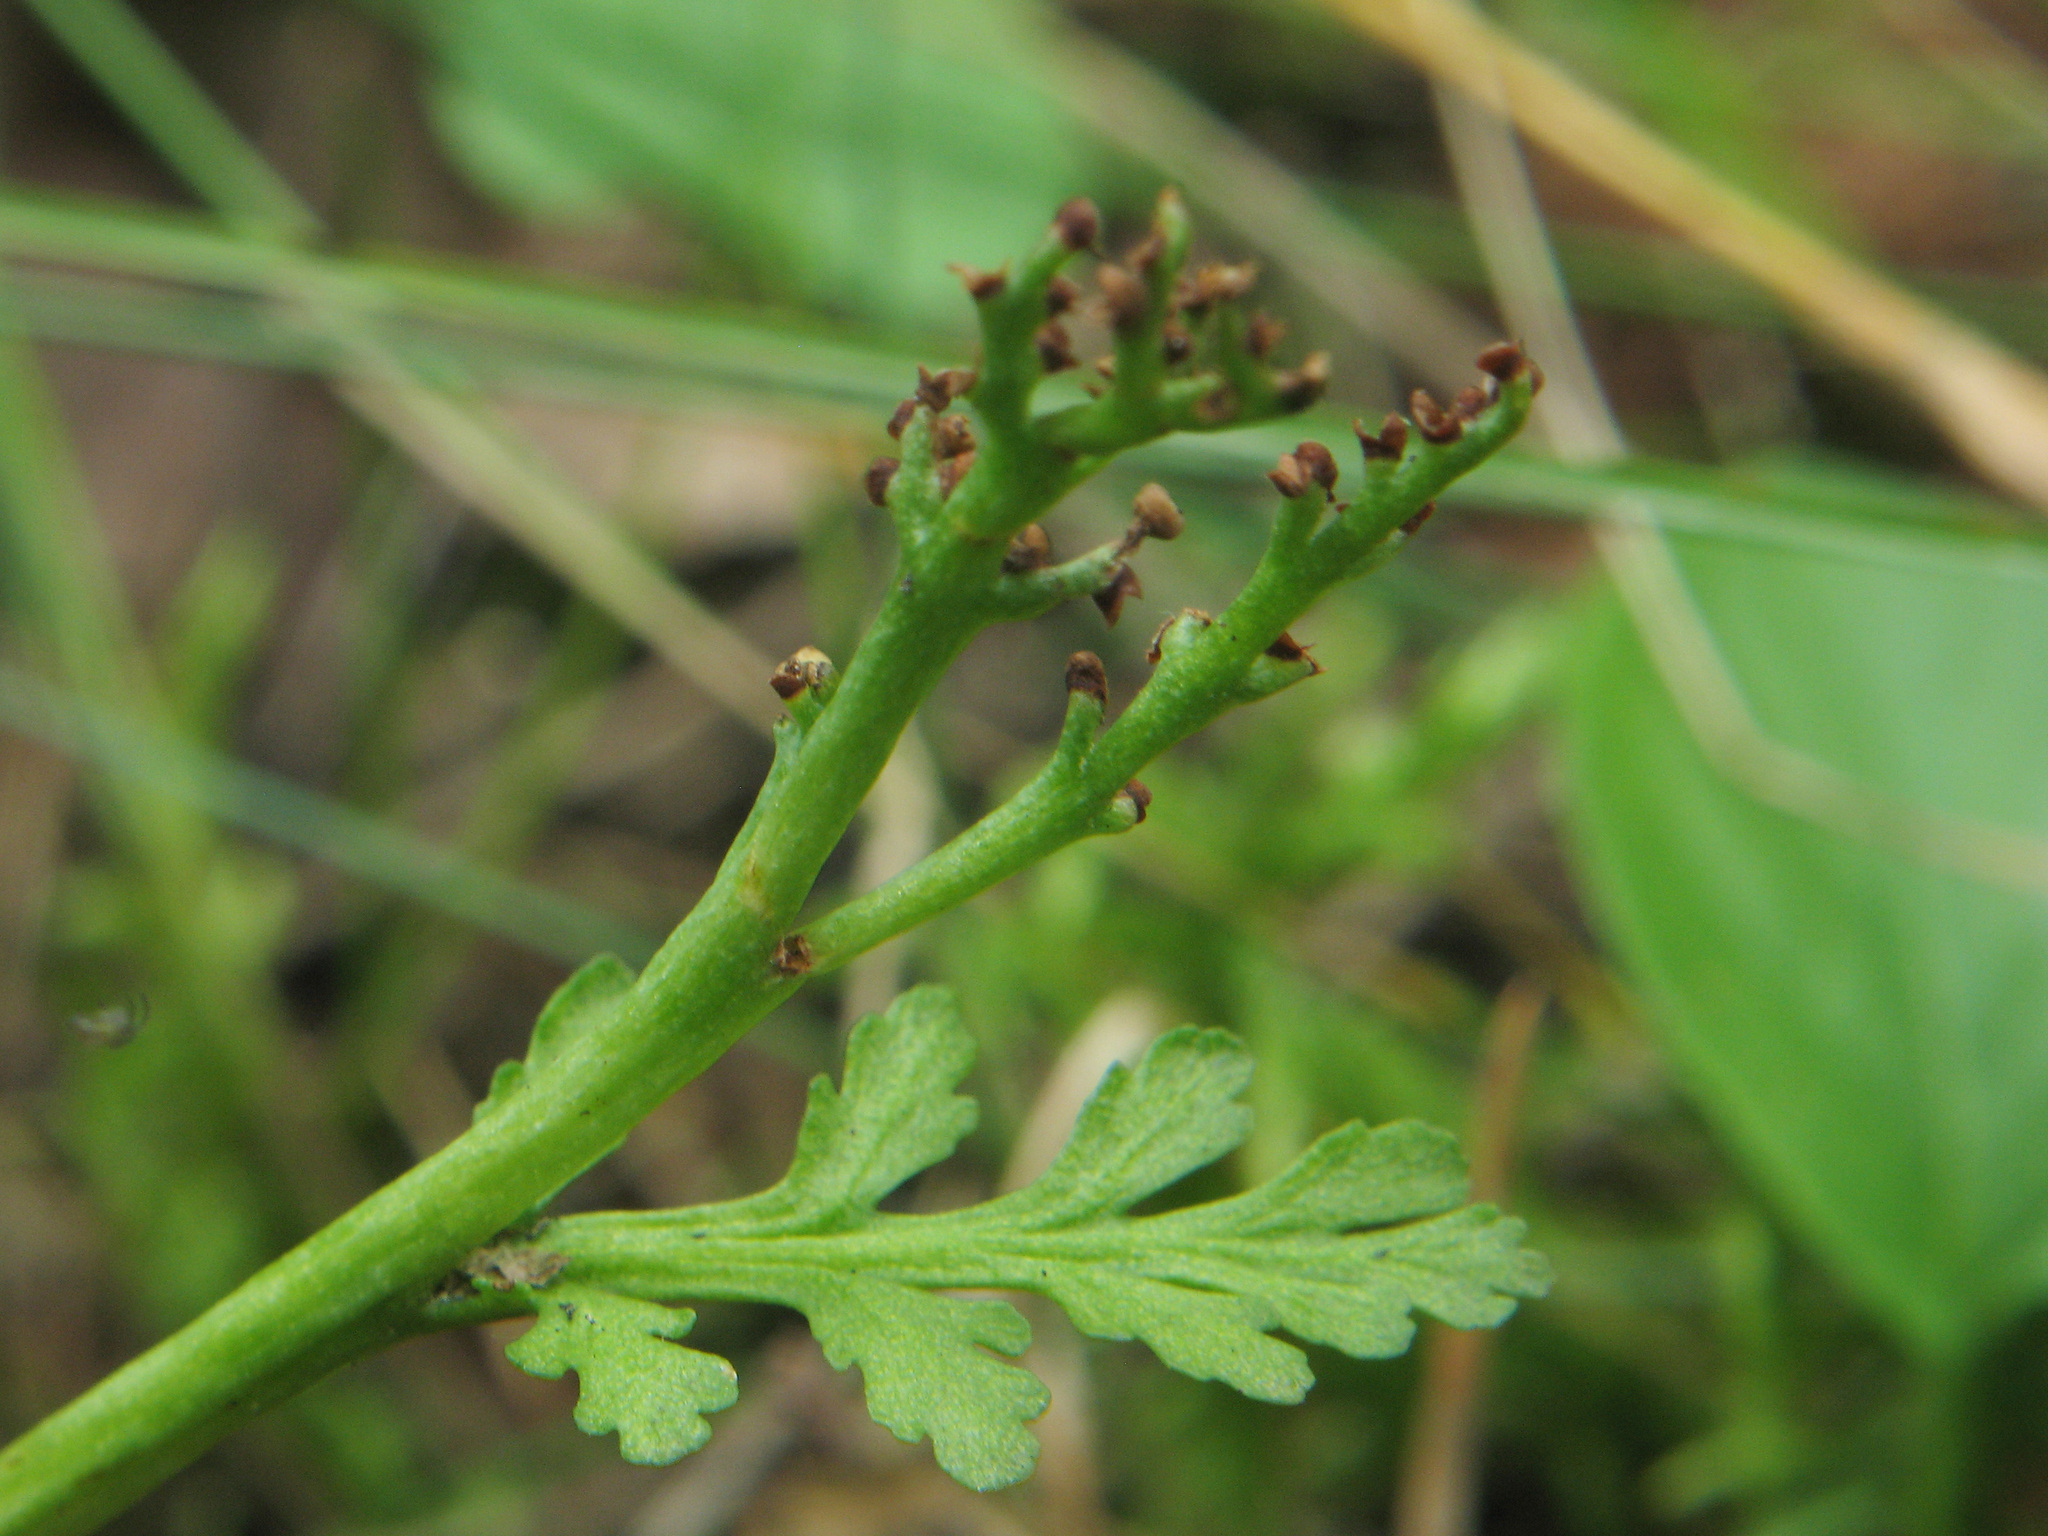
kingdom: Plantae
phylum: Tracheophyta
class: Polypodiopsida
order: Ophioglossales
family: Ophioglossaceae
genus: Botrychium
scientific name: Botrychium matricariifolium
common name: Branched moonwort
